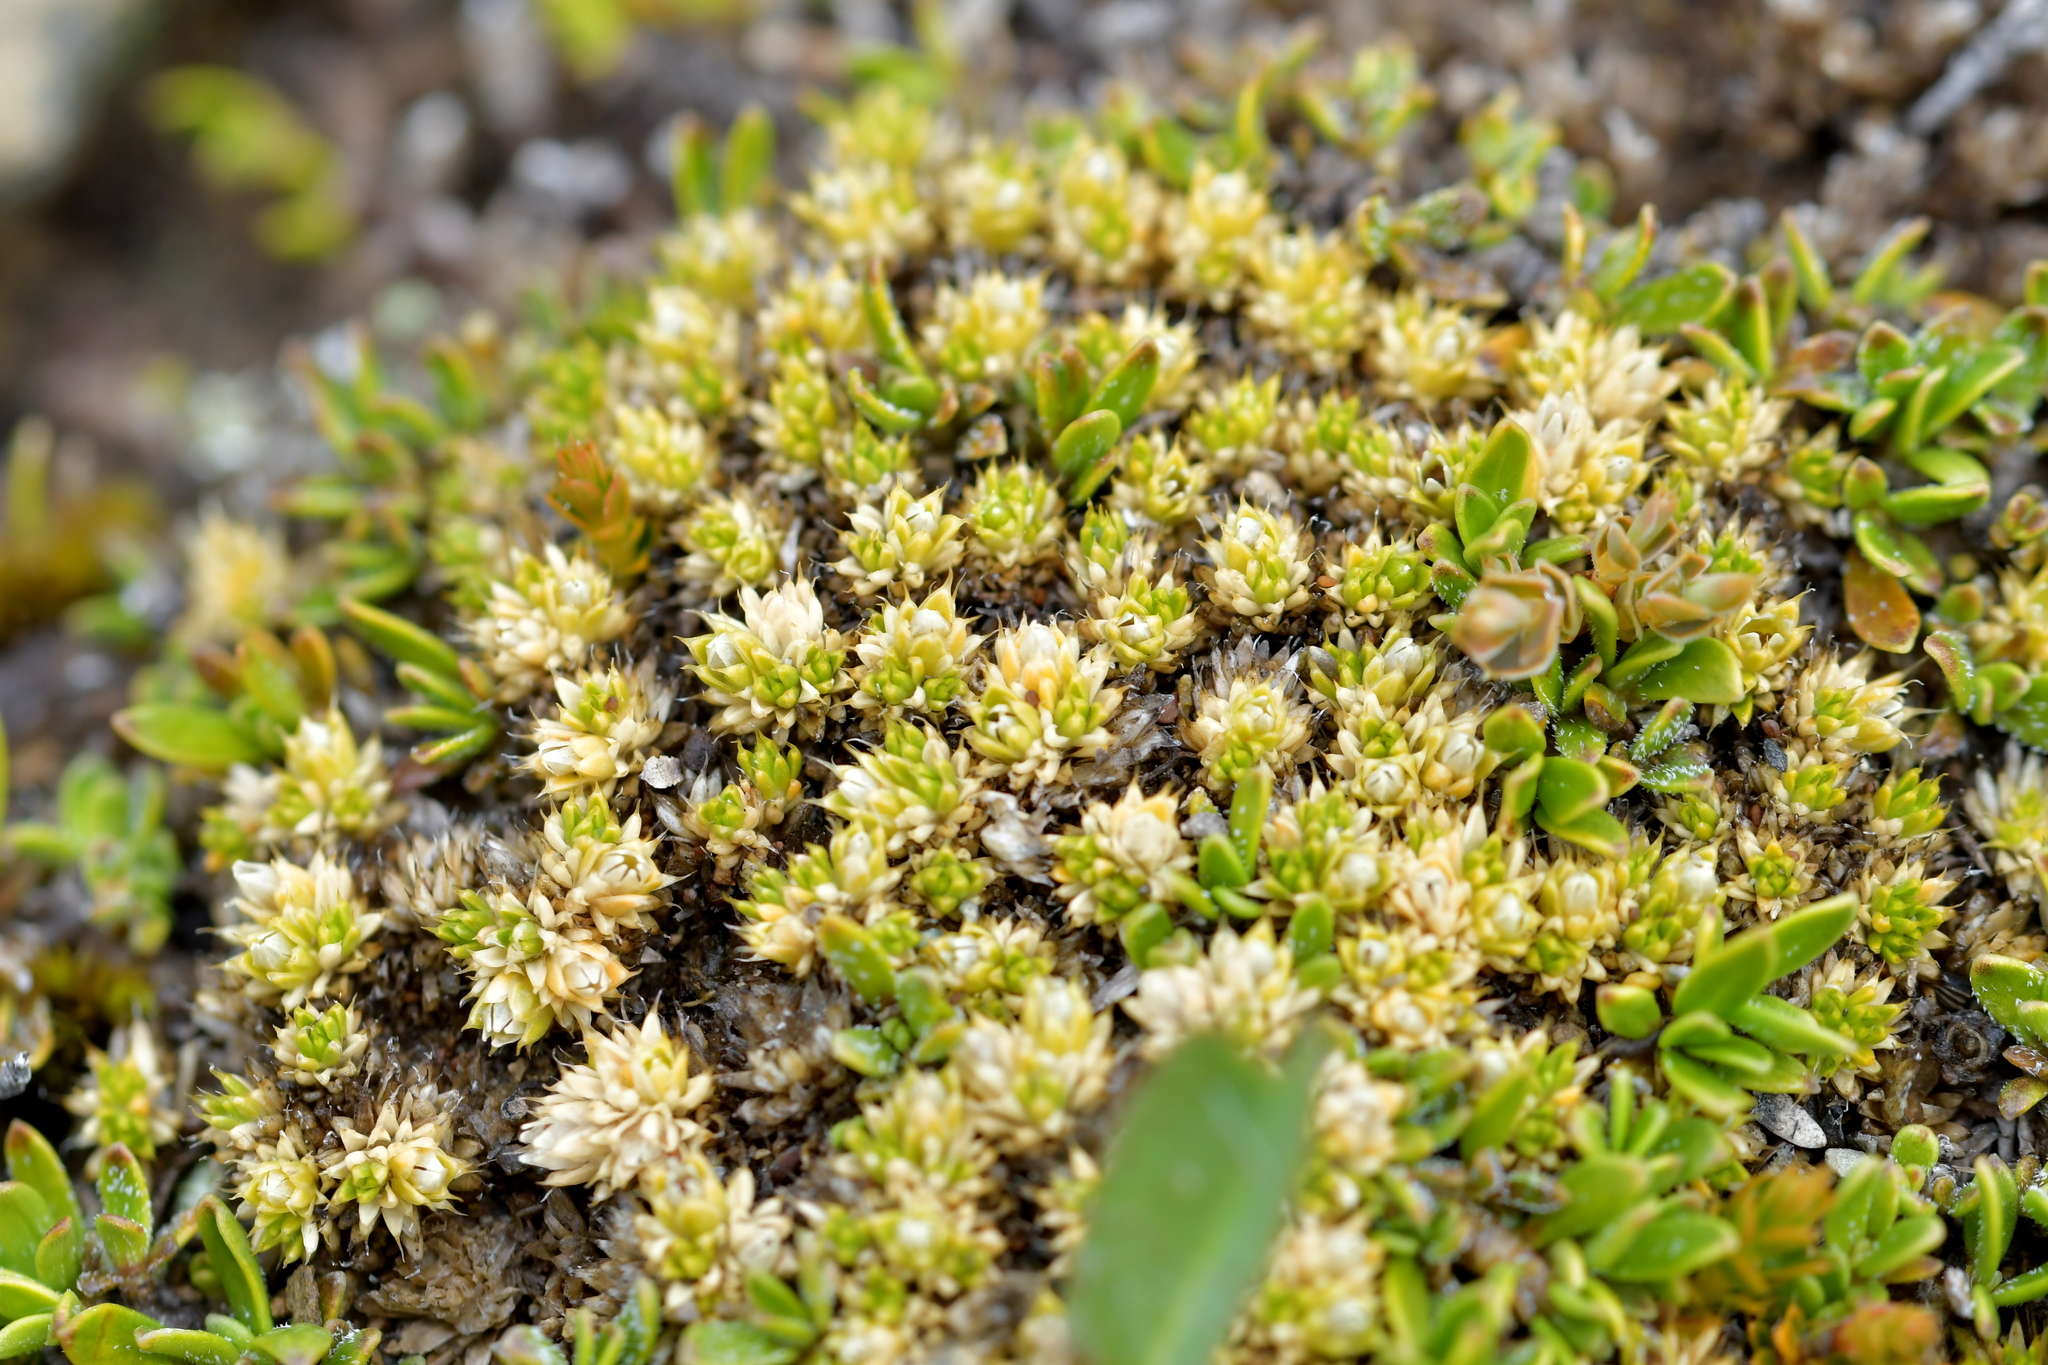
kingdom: Plantae
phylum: Tracheophyta
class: Magnoliopsida
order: Caryophyllales
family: Caryophyllaceae
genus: Colobanthus
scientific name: Colobanthus brevisepalus
